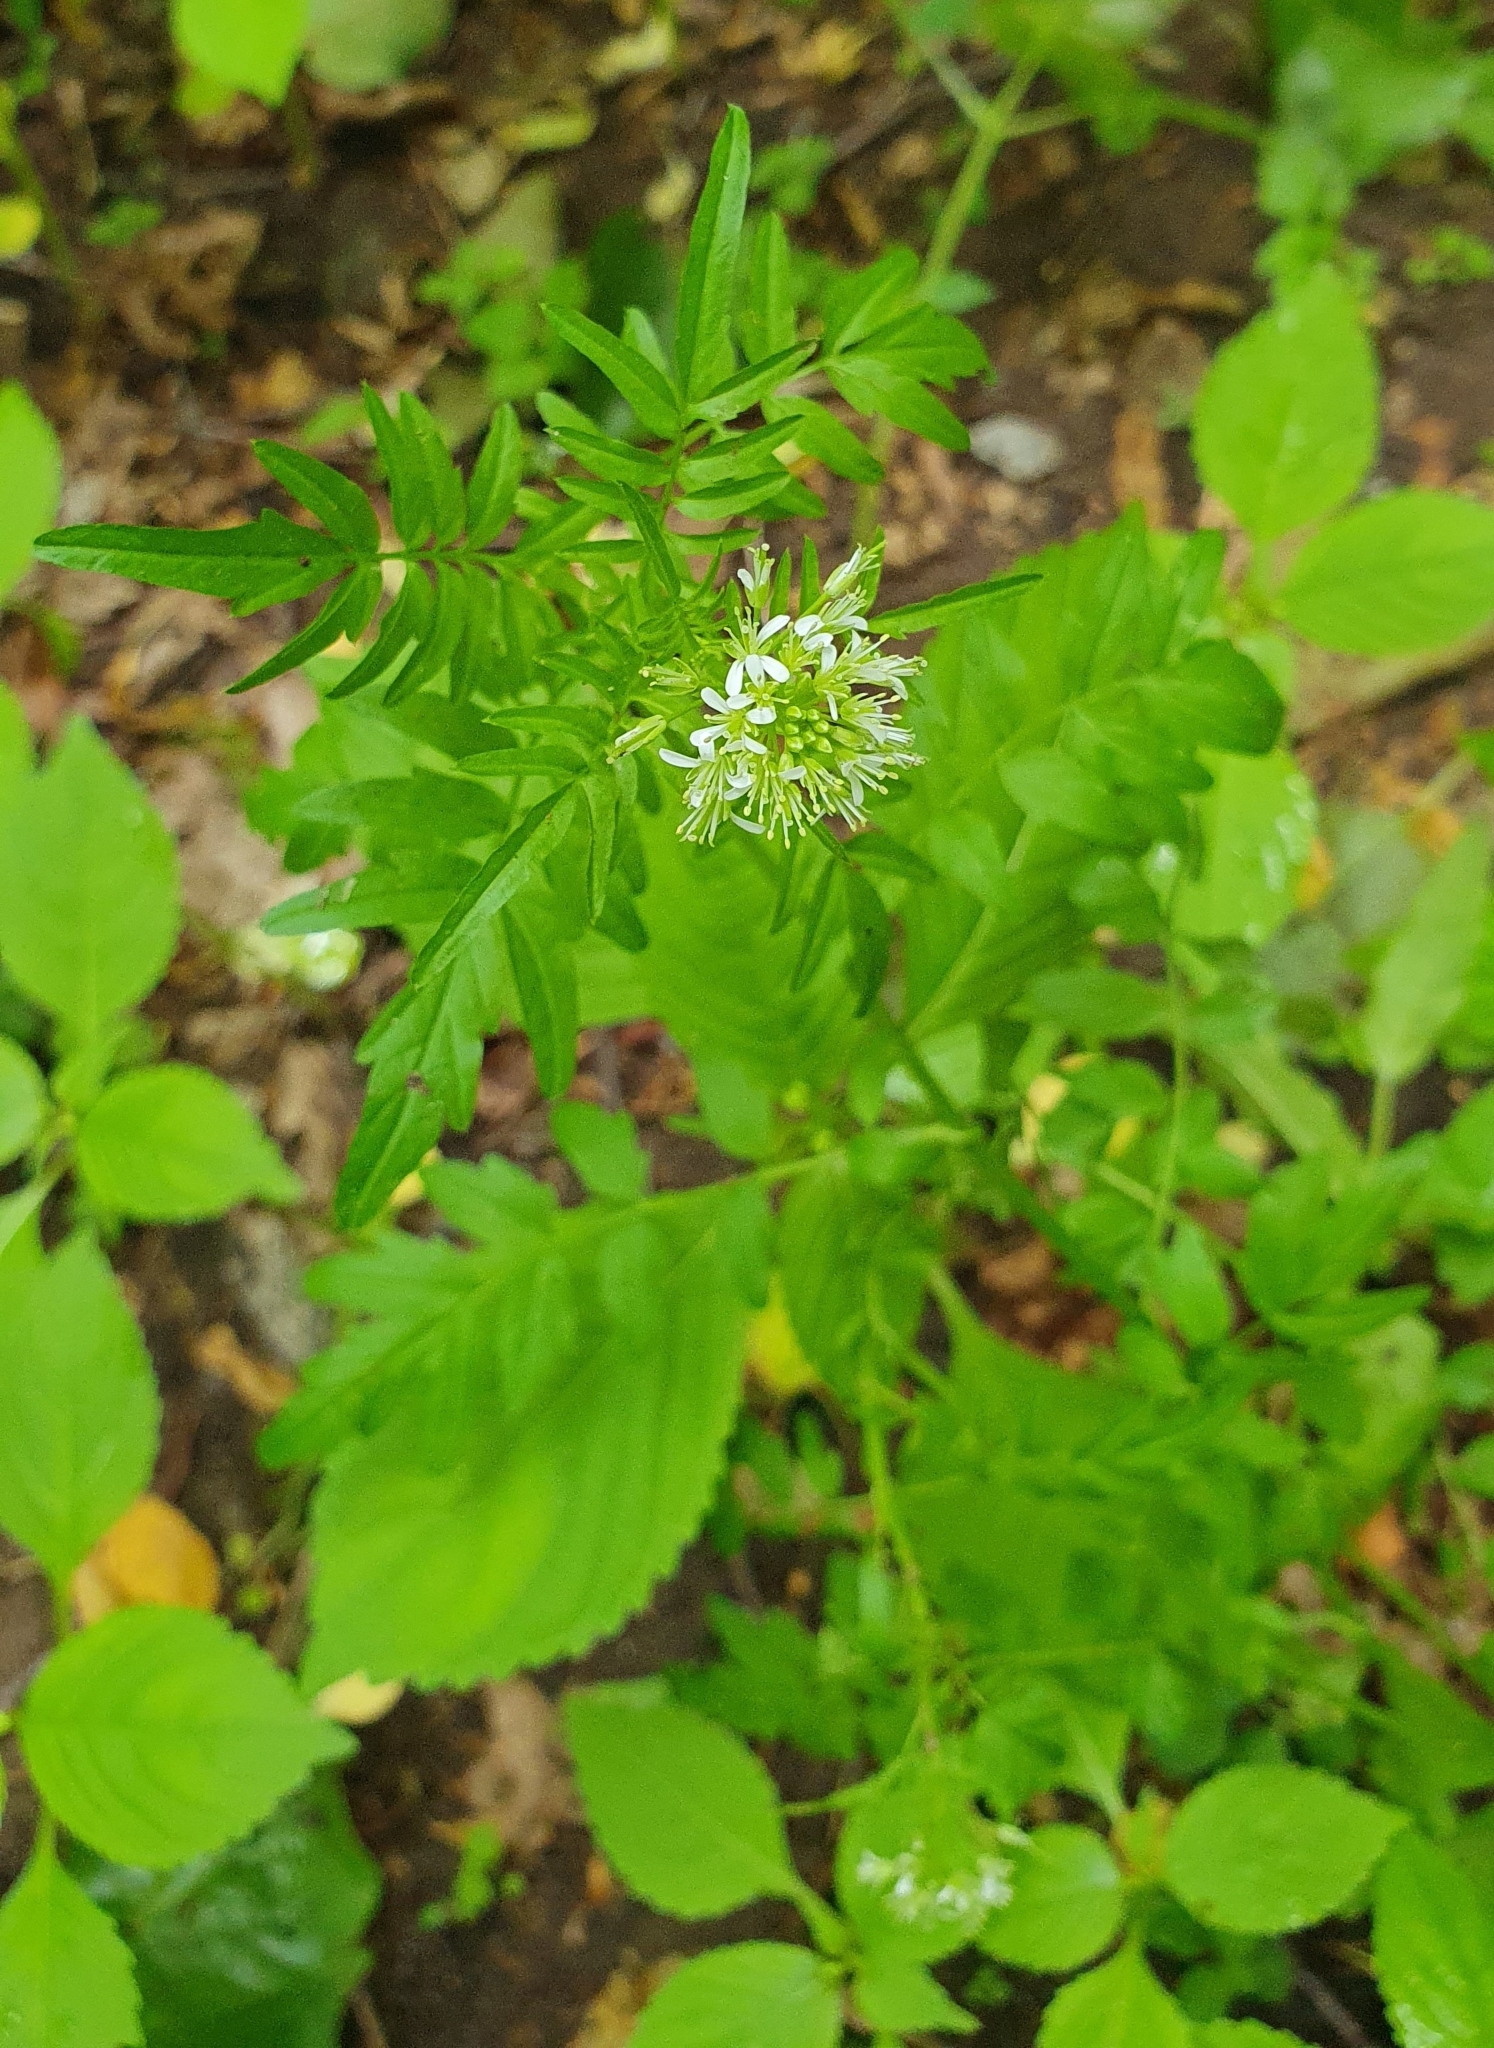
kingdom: Plantae
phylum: Tracheophyta
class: Magnoliopsida
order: Brassicales
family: Brassicaceae
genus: Cardamine
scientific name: Cardamine impatiens
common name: Narrow-leaved bitter-cress
